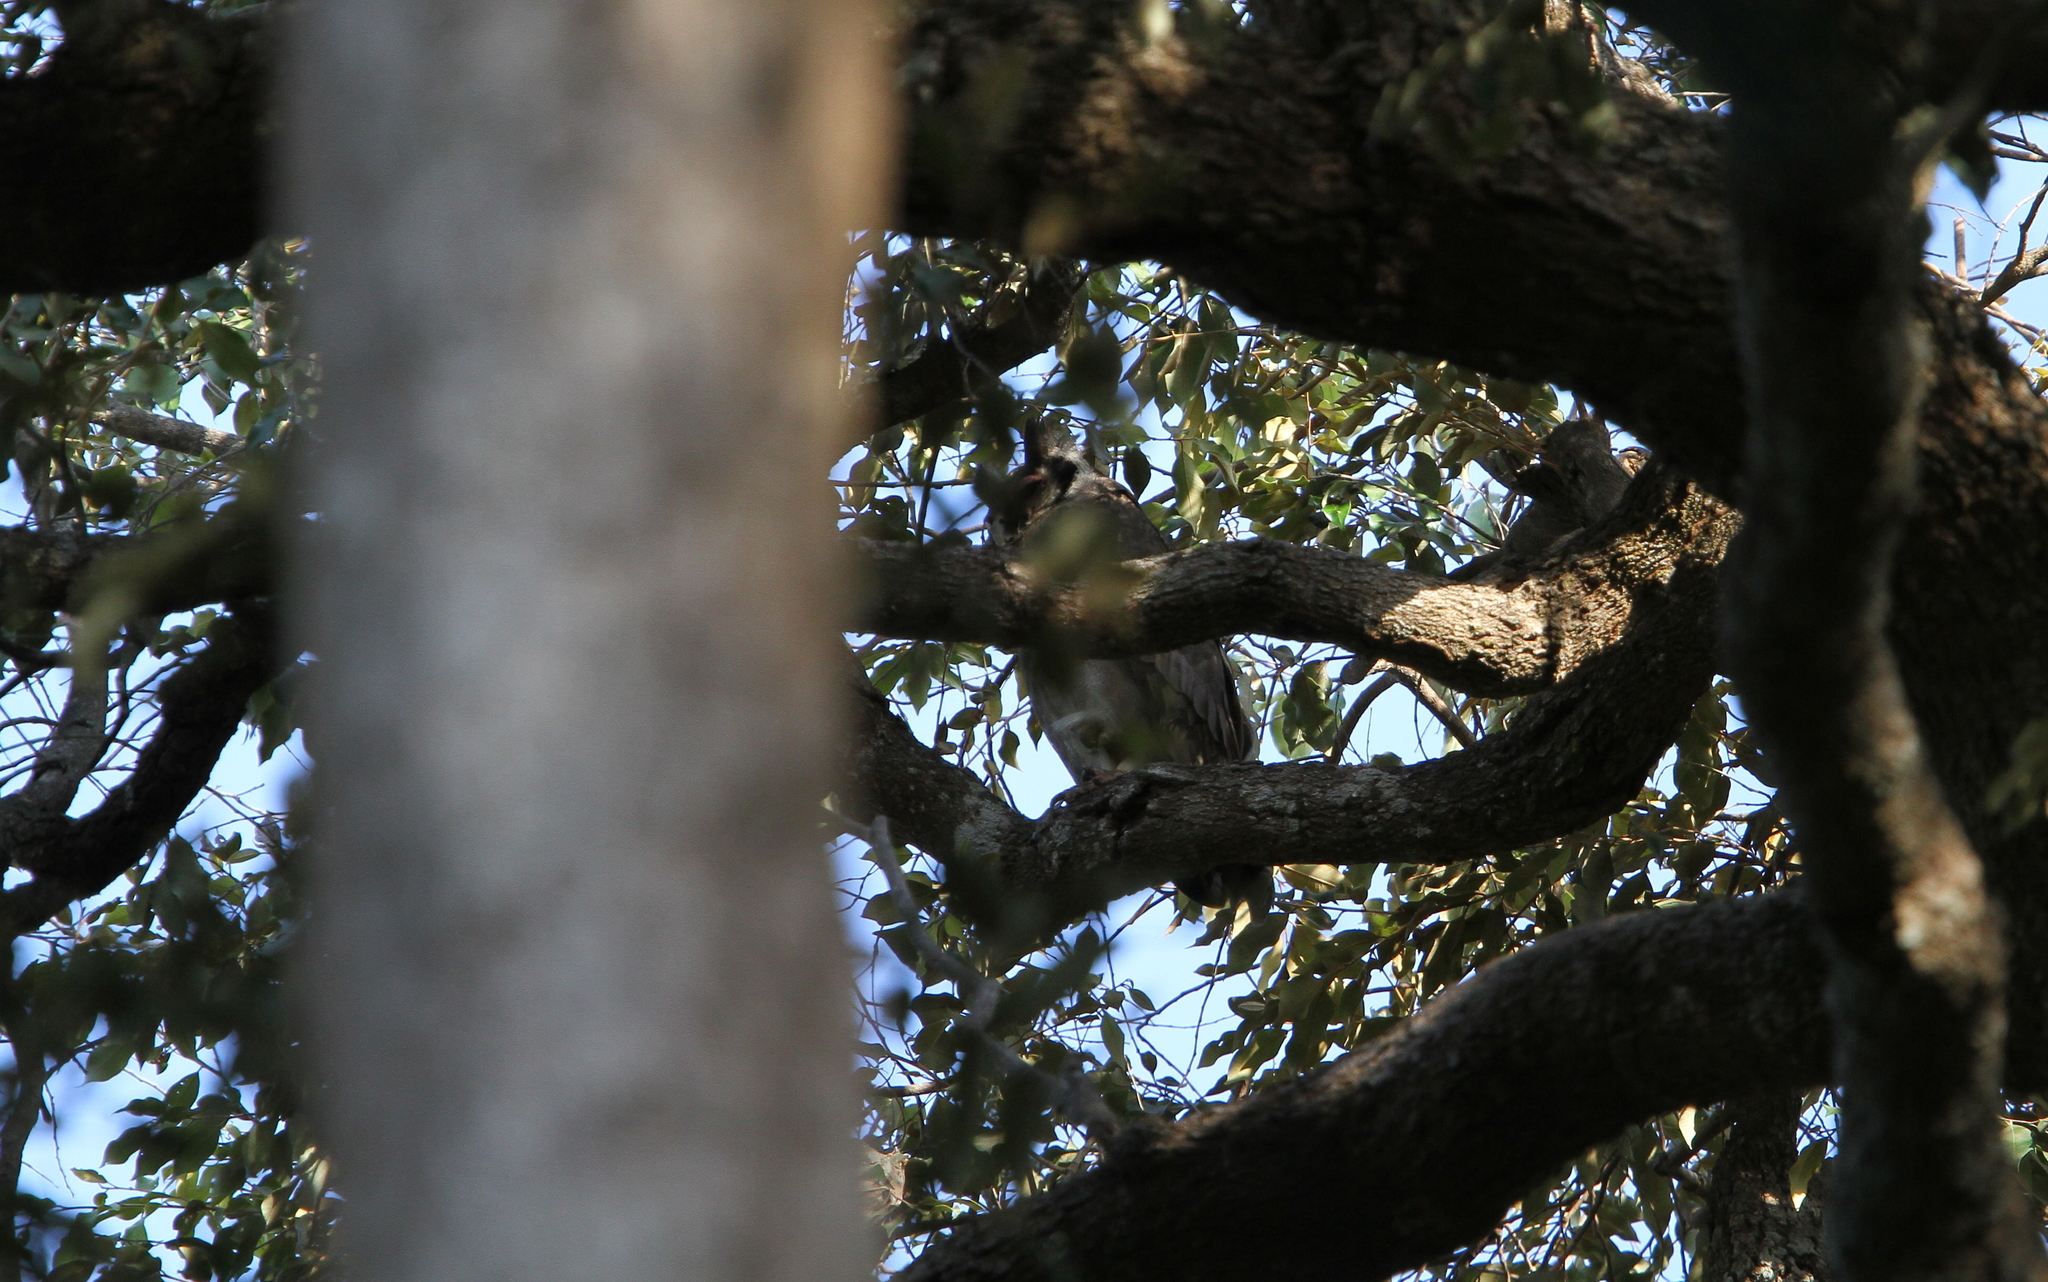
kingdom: Animalia
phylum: Chordata
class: Aves
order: Strigiformes
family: Strigidae
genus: Bubo
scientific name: Bubo lacteus
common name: Verreaux's eagle-owl
